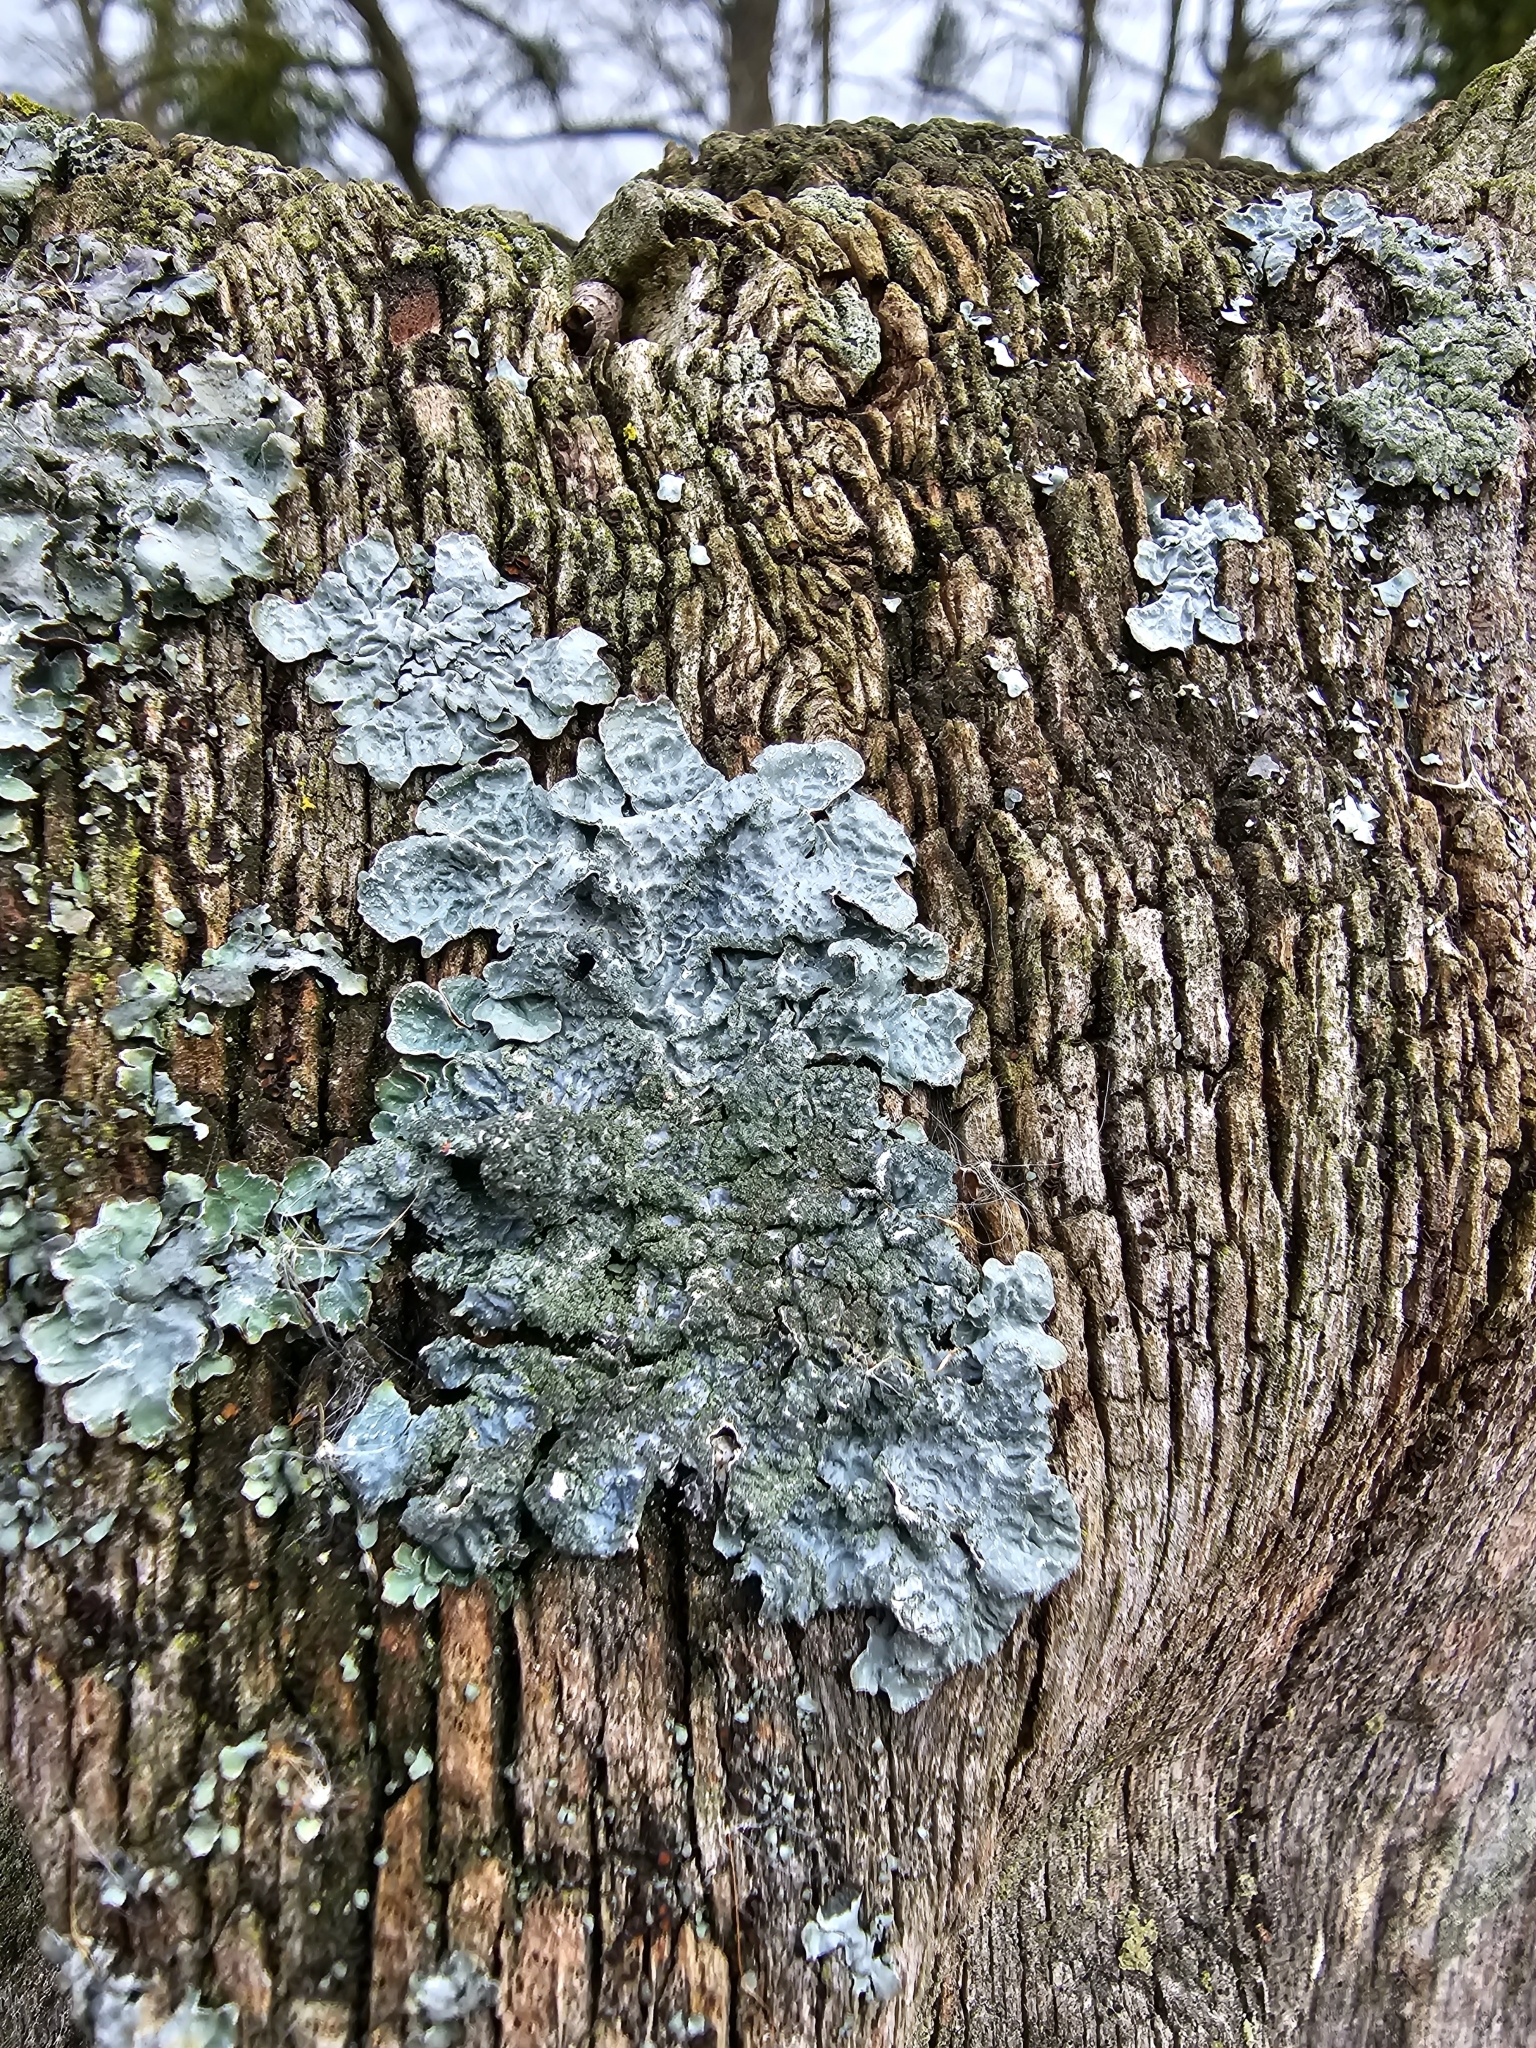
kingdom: Fungi
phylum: Ascomycota
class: Lecanoromycetes
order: Lecanorales
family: Parmeliaceae
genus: Parmelia
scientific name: Parmelia sulcata
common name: Netted shield lichen
